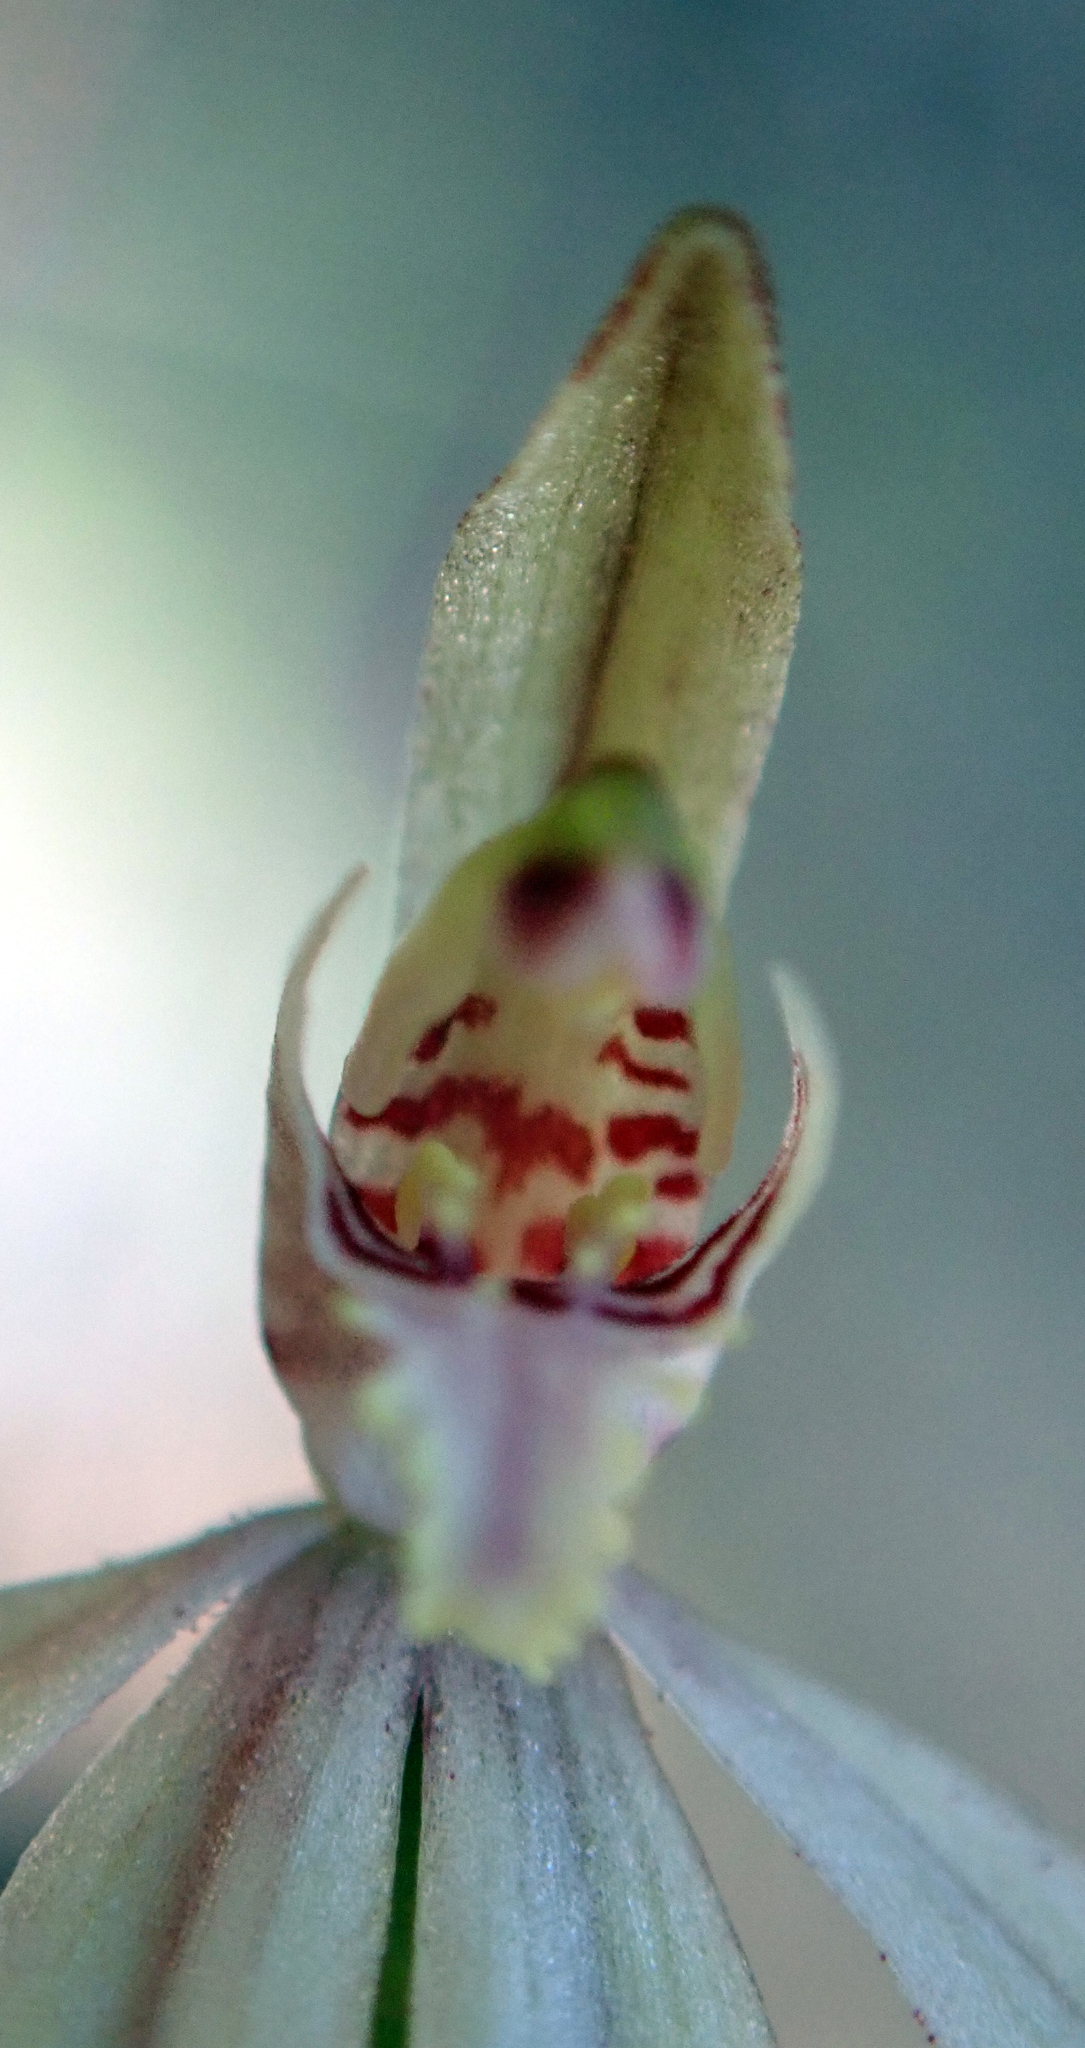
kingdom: Plantae
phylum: Tracheophyta
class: Liliopsida
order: Asparagales
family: Orchidaceae
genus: Caladenia
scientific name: Caladenia chlorostyla
